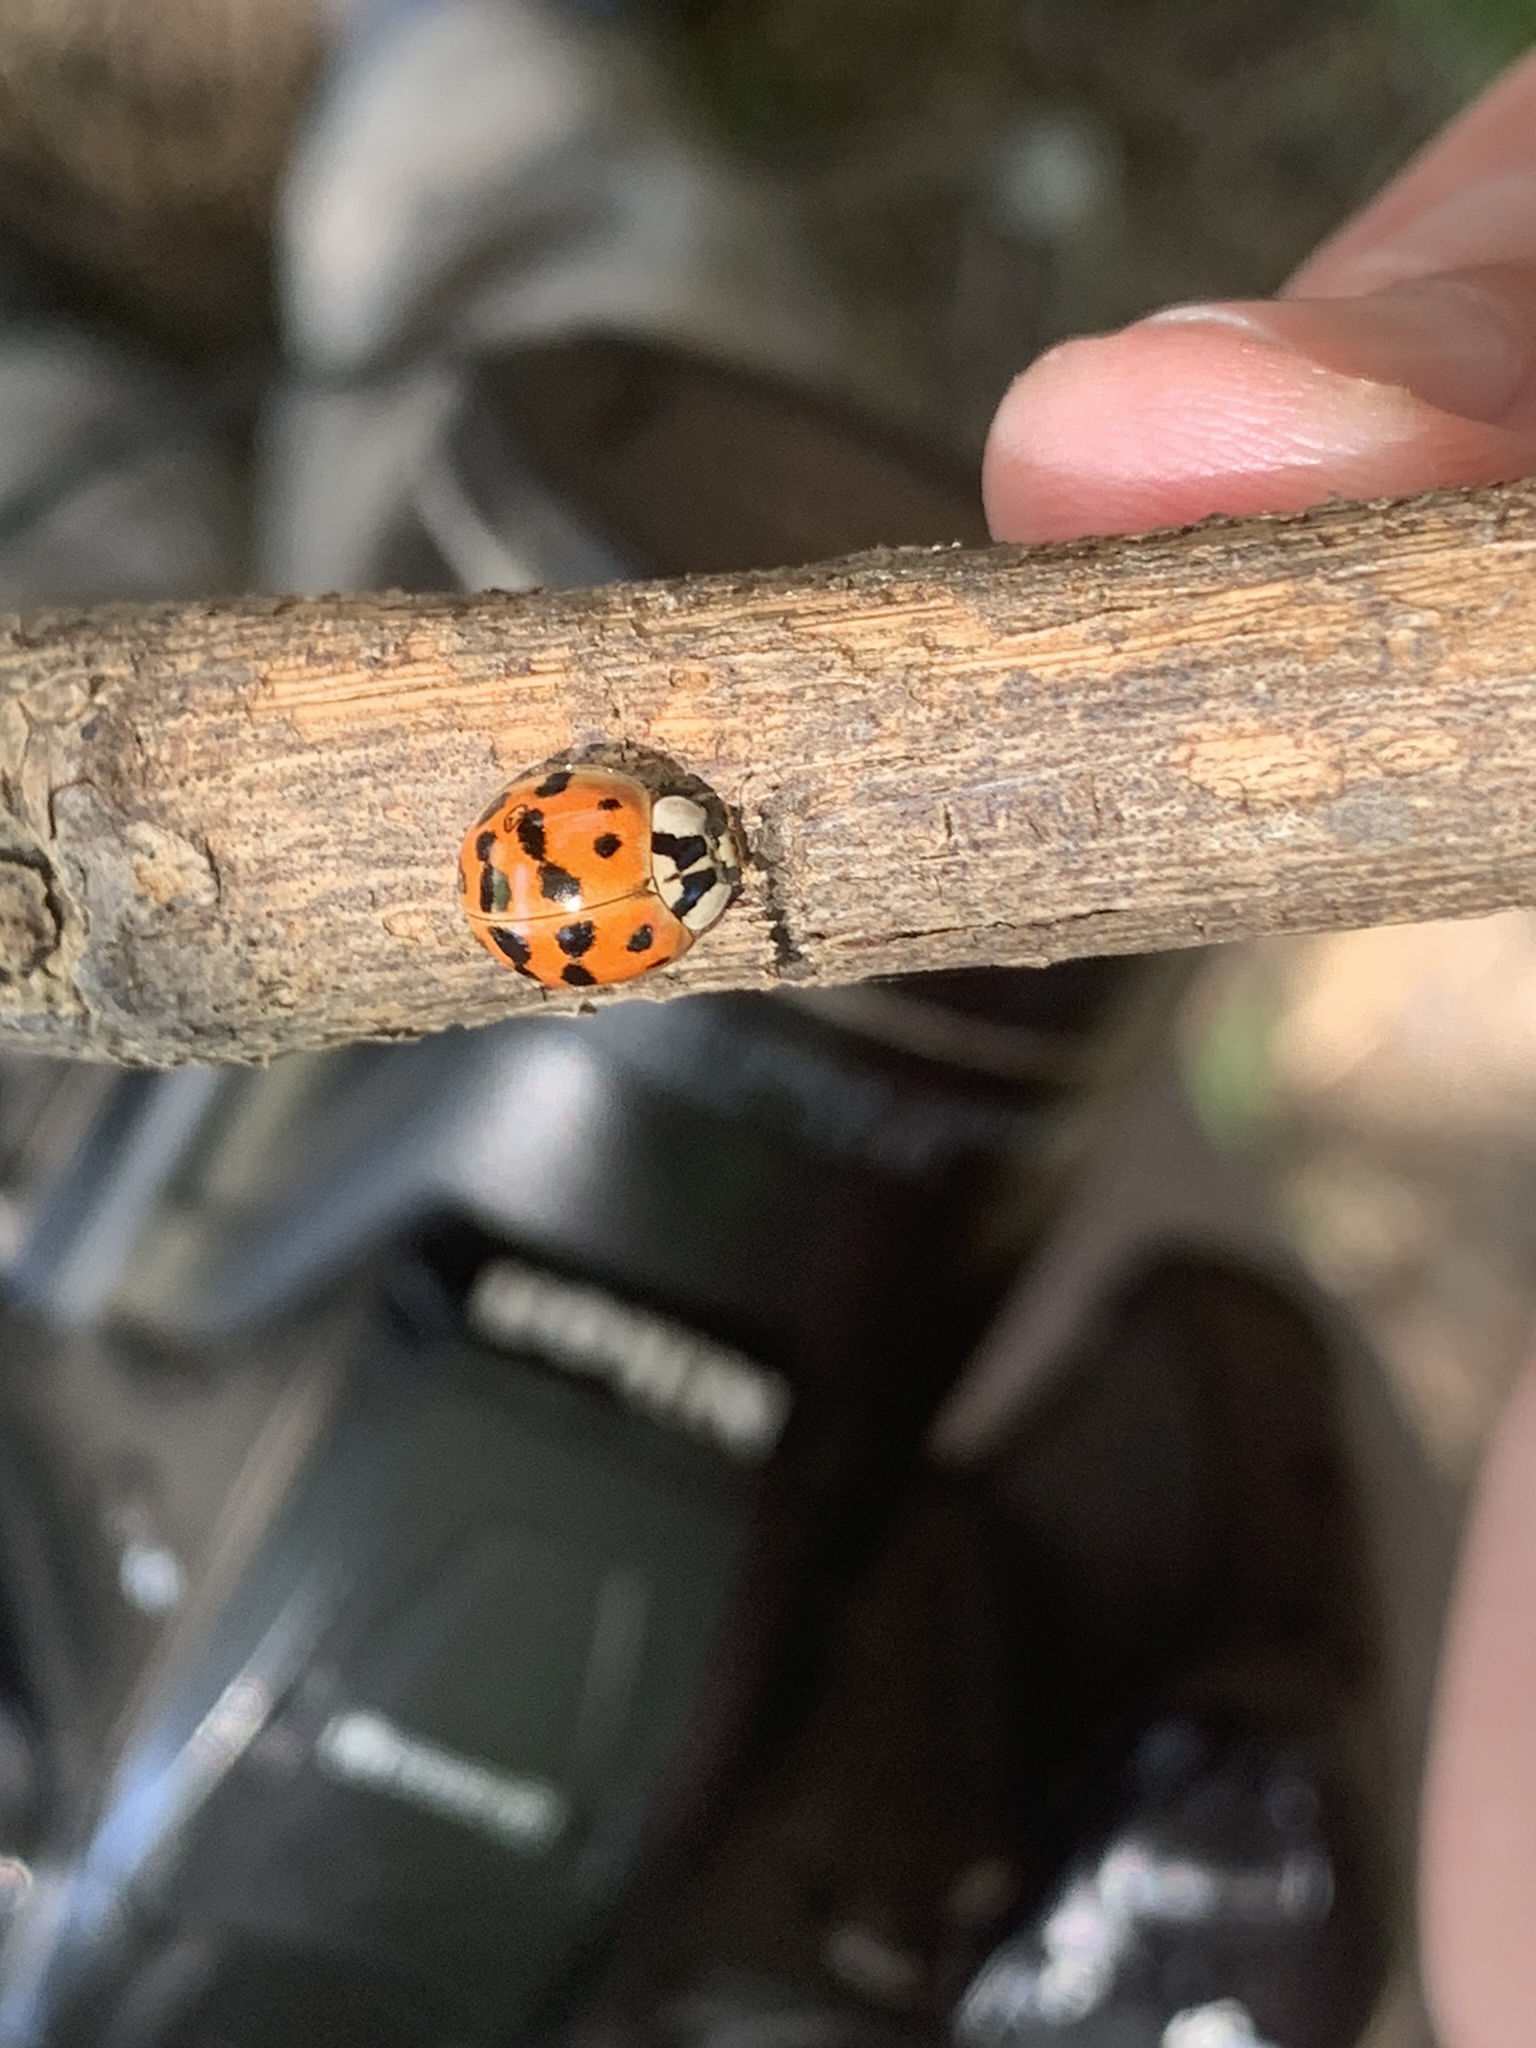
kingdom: Animalia
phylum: Arthropoda
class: Insecta
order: Coleoptera
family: Coccinellidae
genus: Harmonia
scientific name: Harmonia axyridis
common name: Harlequin ladybird
